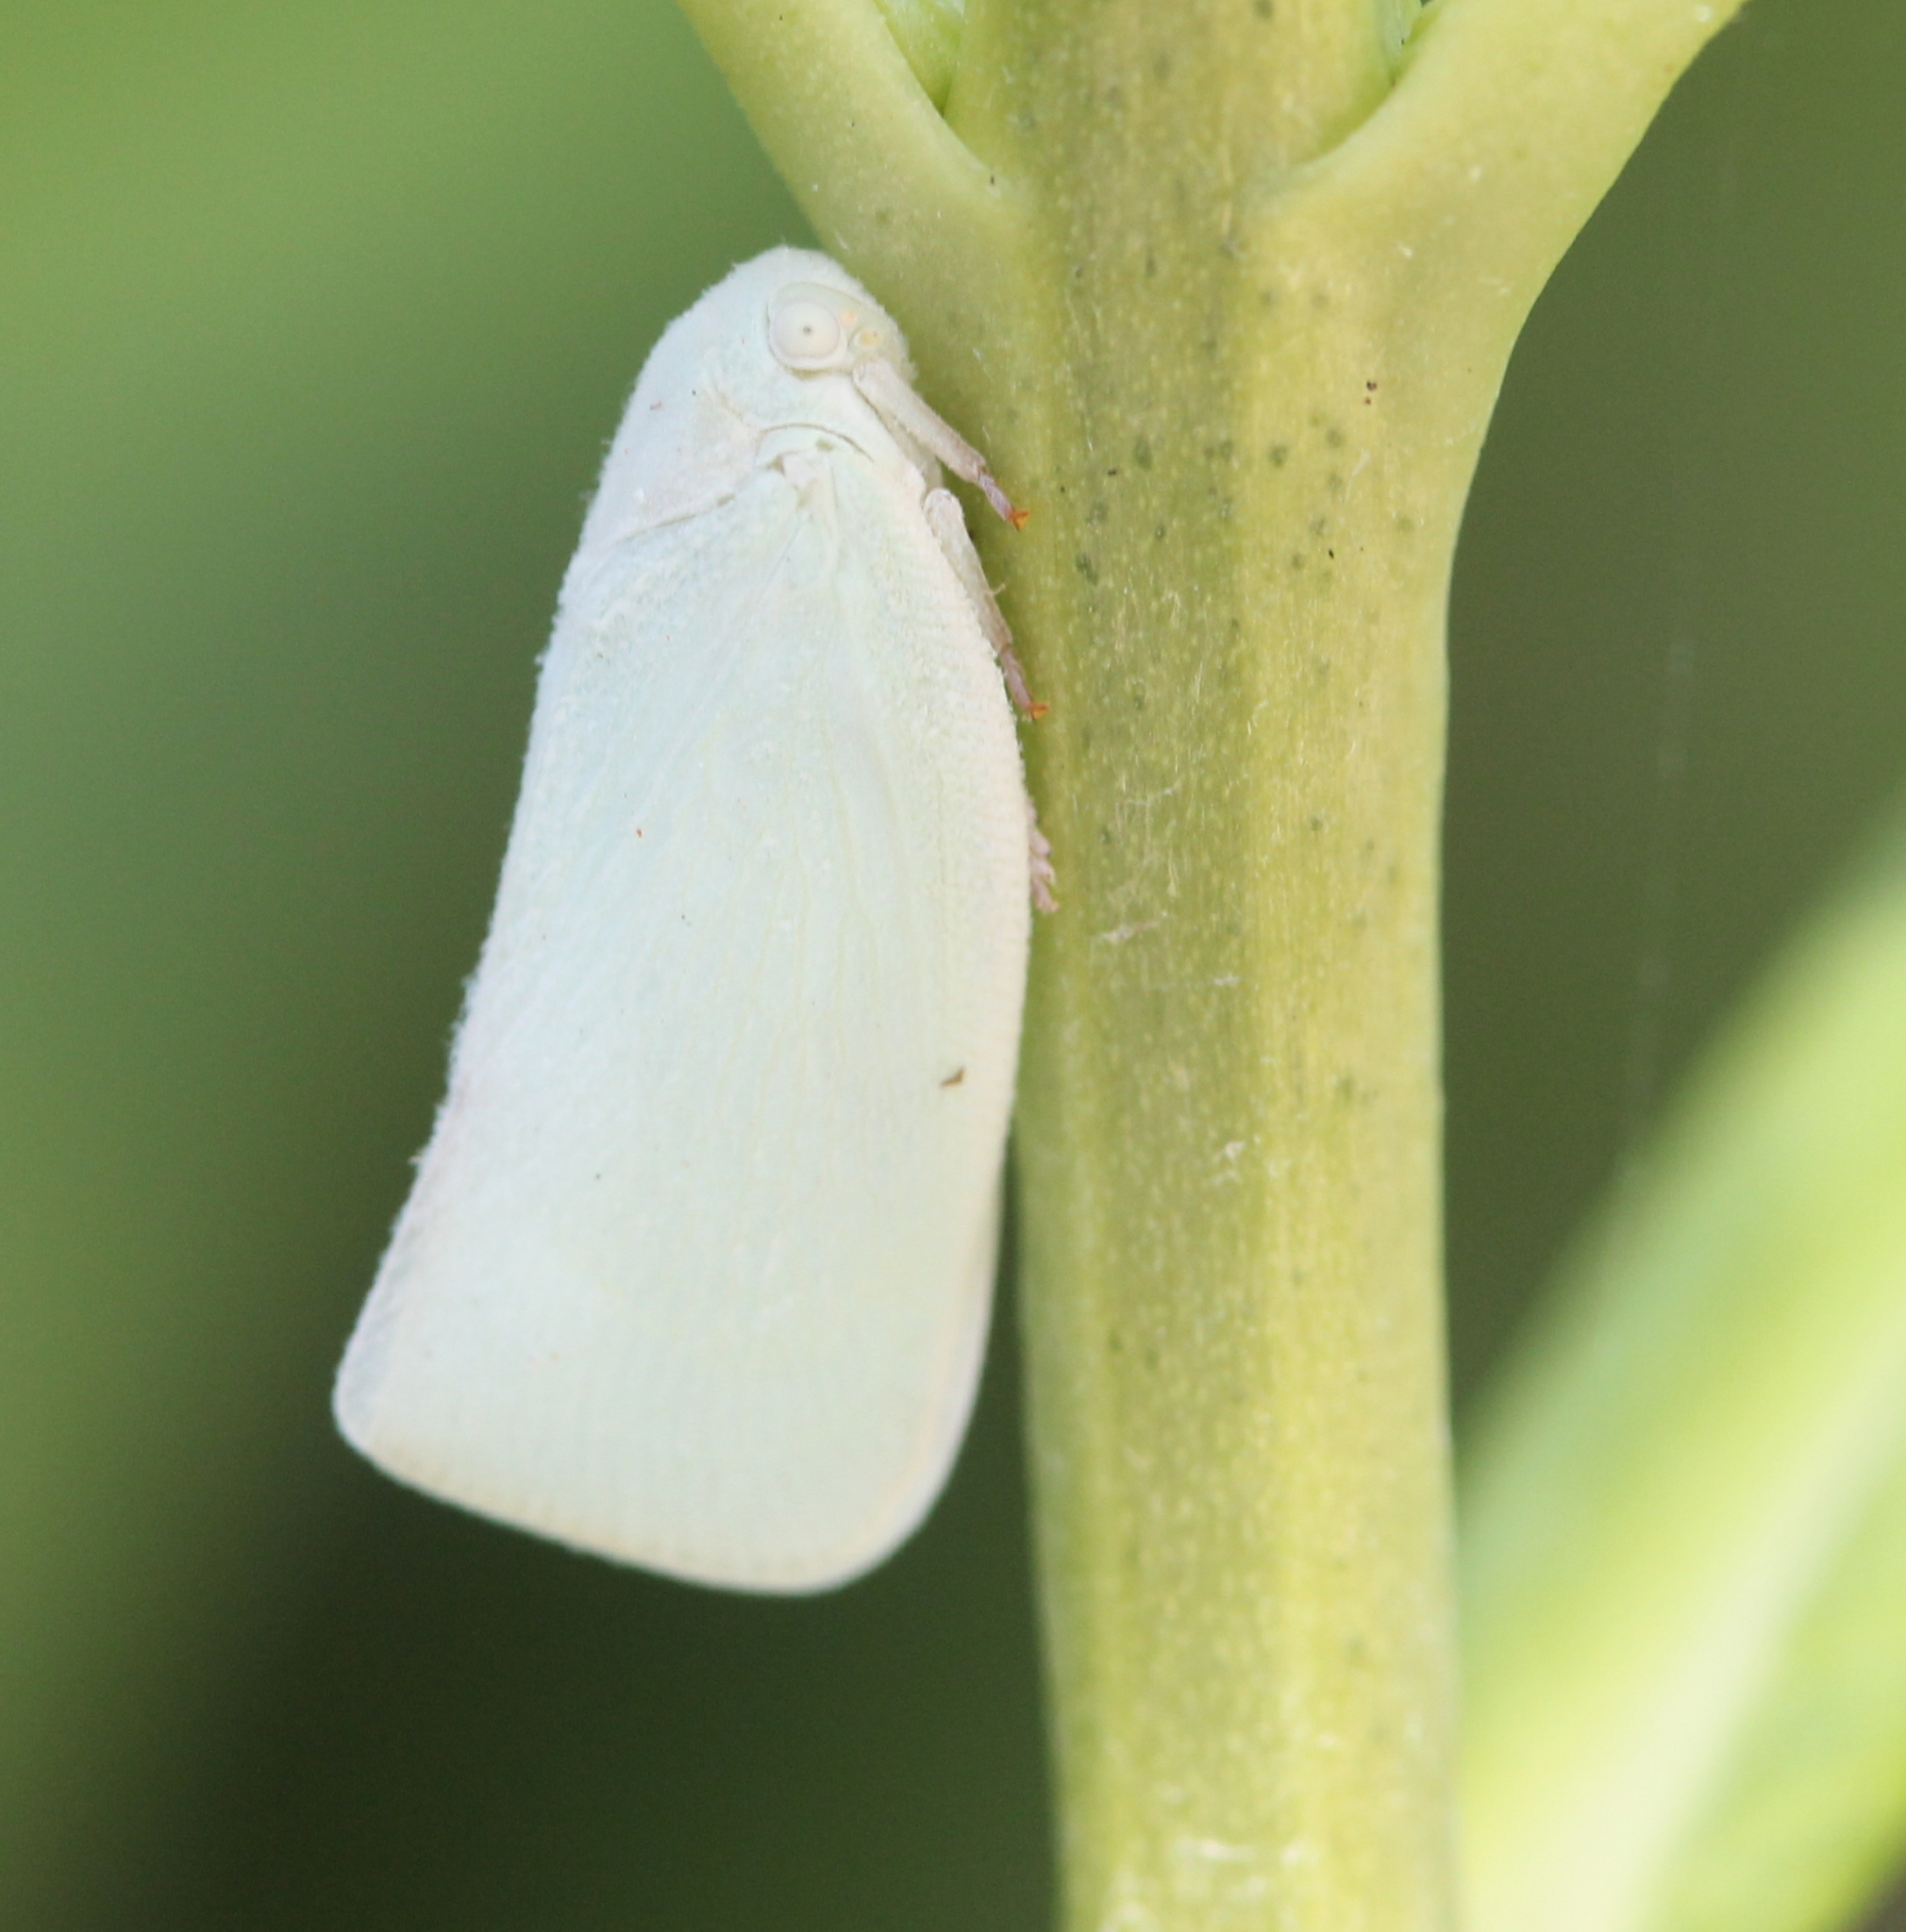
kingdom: Animalia
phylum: Arthropoda
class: Insecta
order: Hemiptera
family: Flatidae
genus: Flatormenis
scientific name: Flatormenis proxima
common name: Northern flatid planthopper
